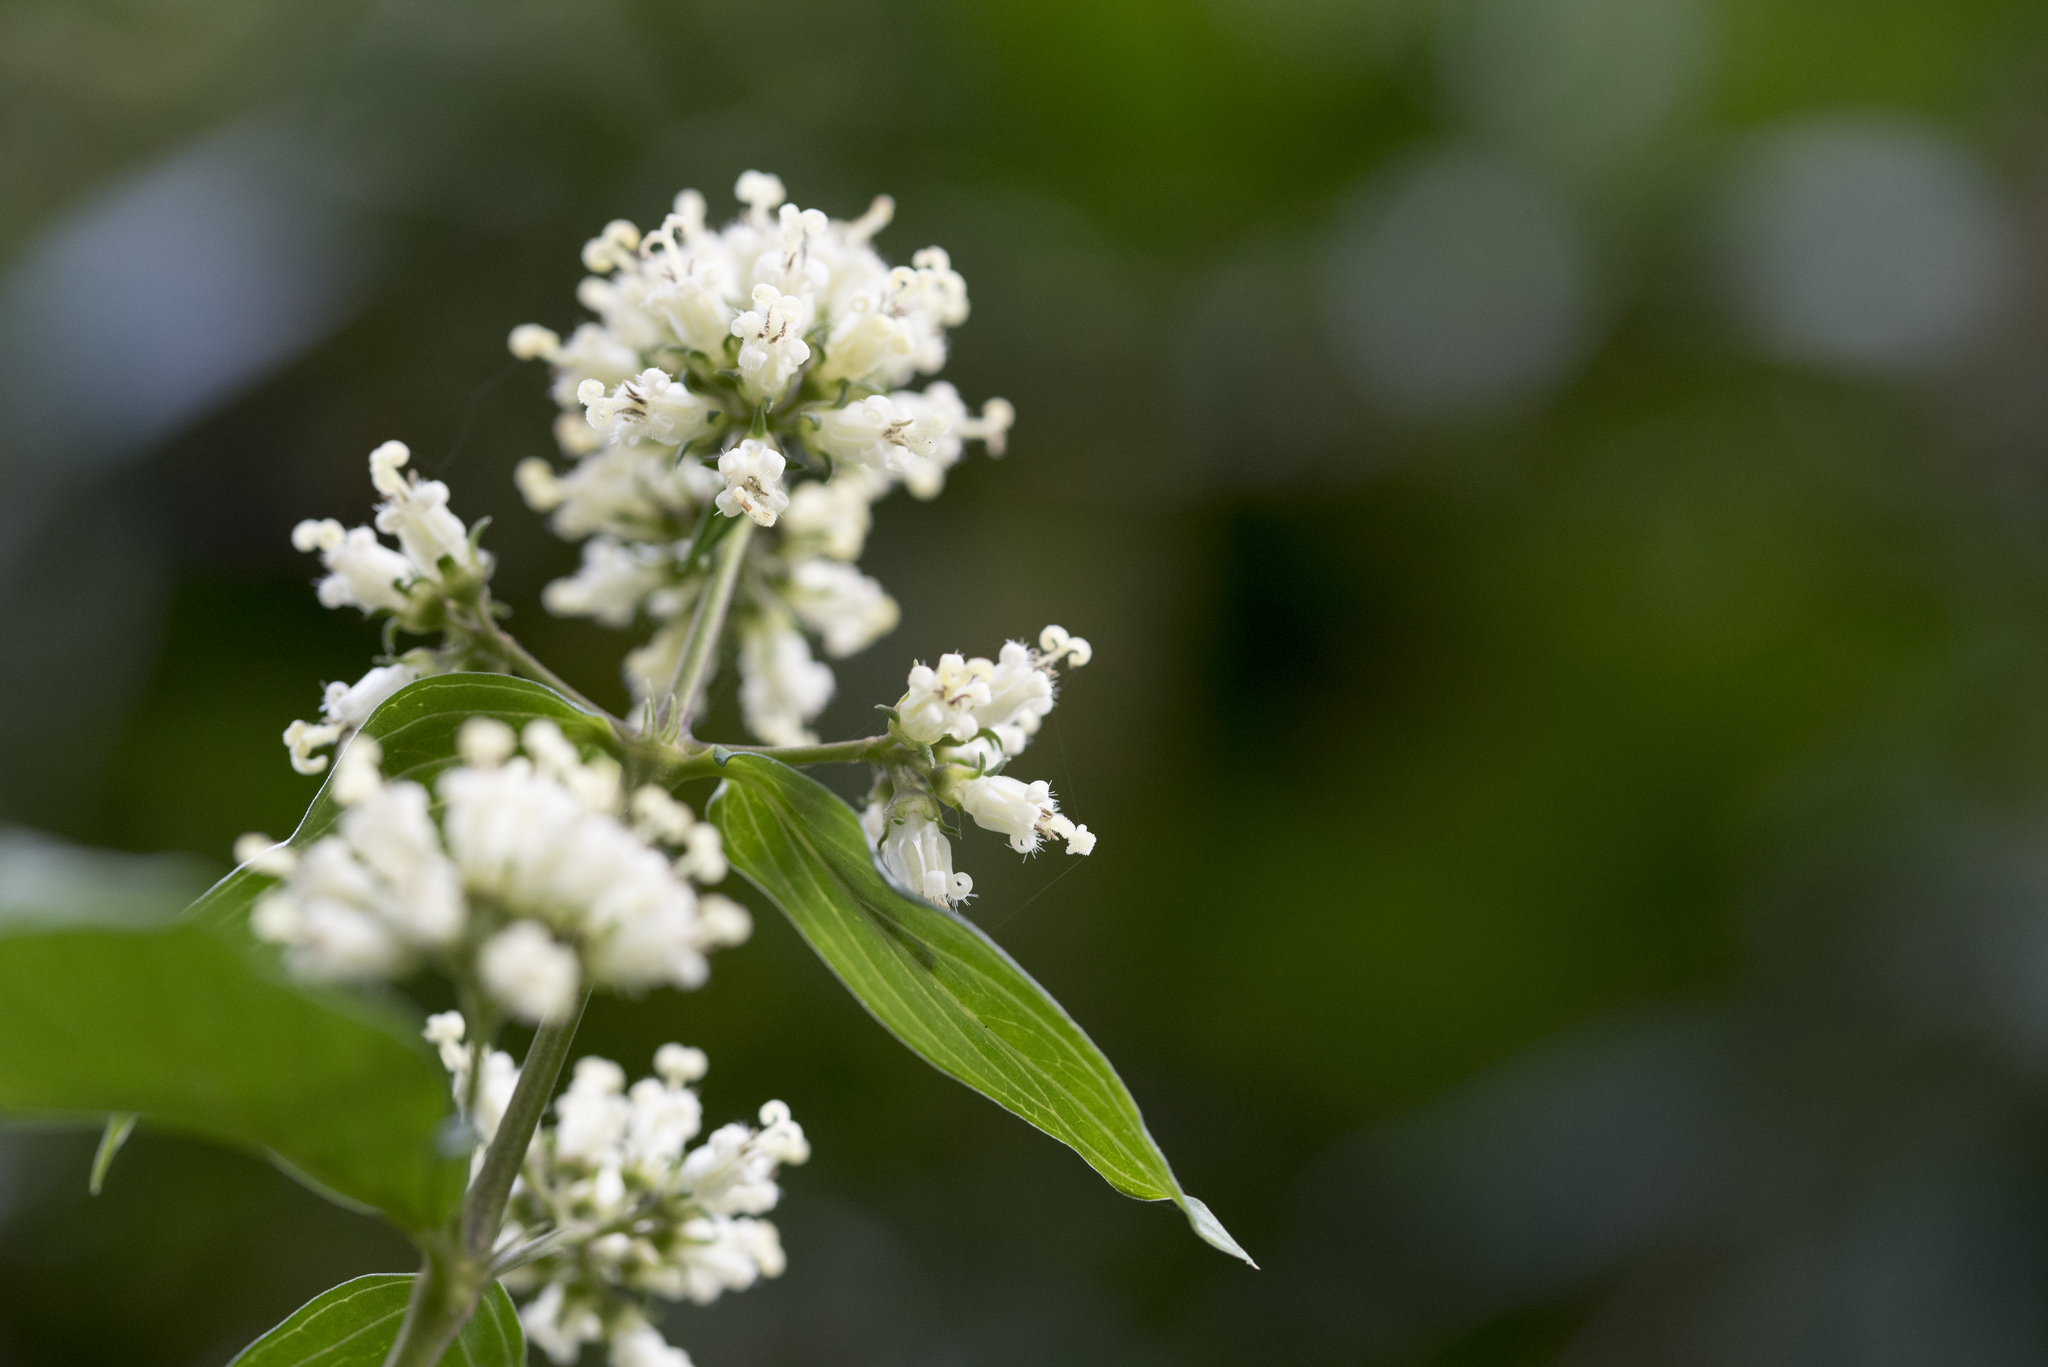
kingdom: Plantae
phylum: Tracheophyta
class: Magnoliopsida
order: Gentianales
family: Rubiaceae
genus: Dimetia
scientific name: Dimetia hedyotidea
